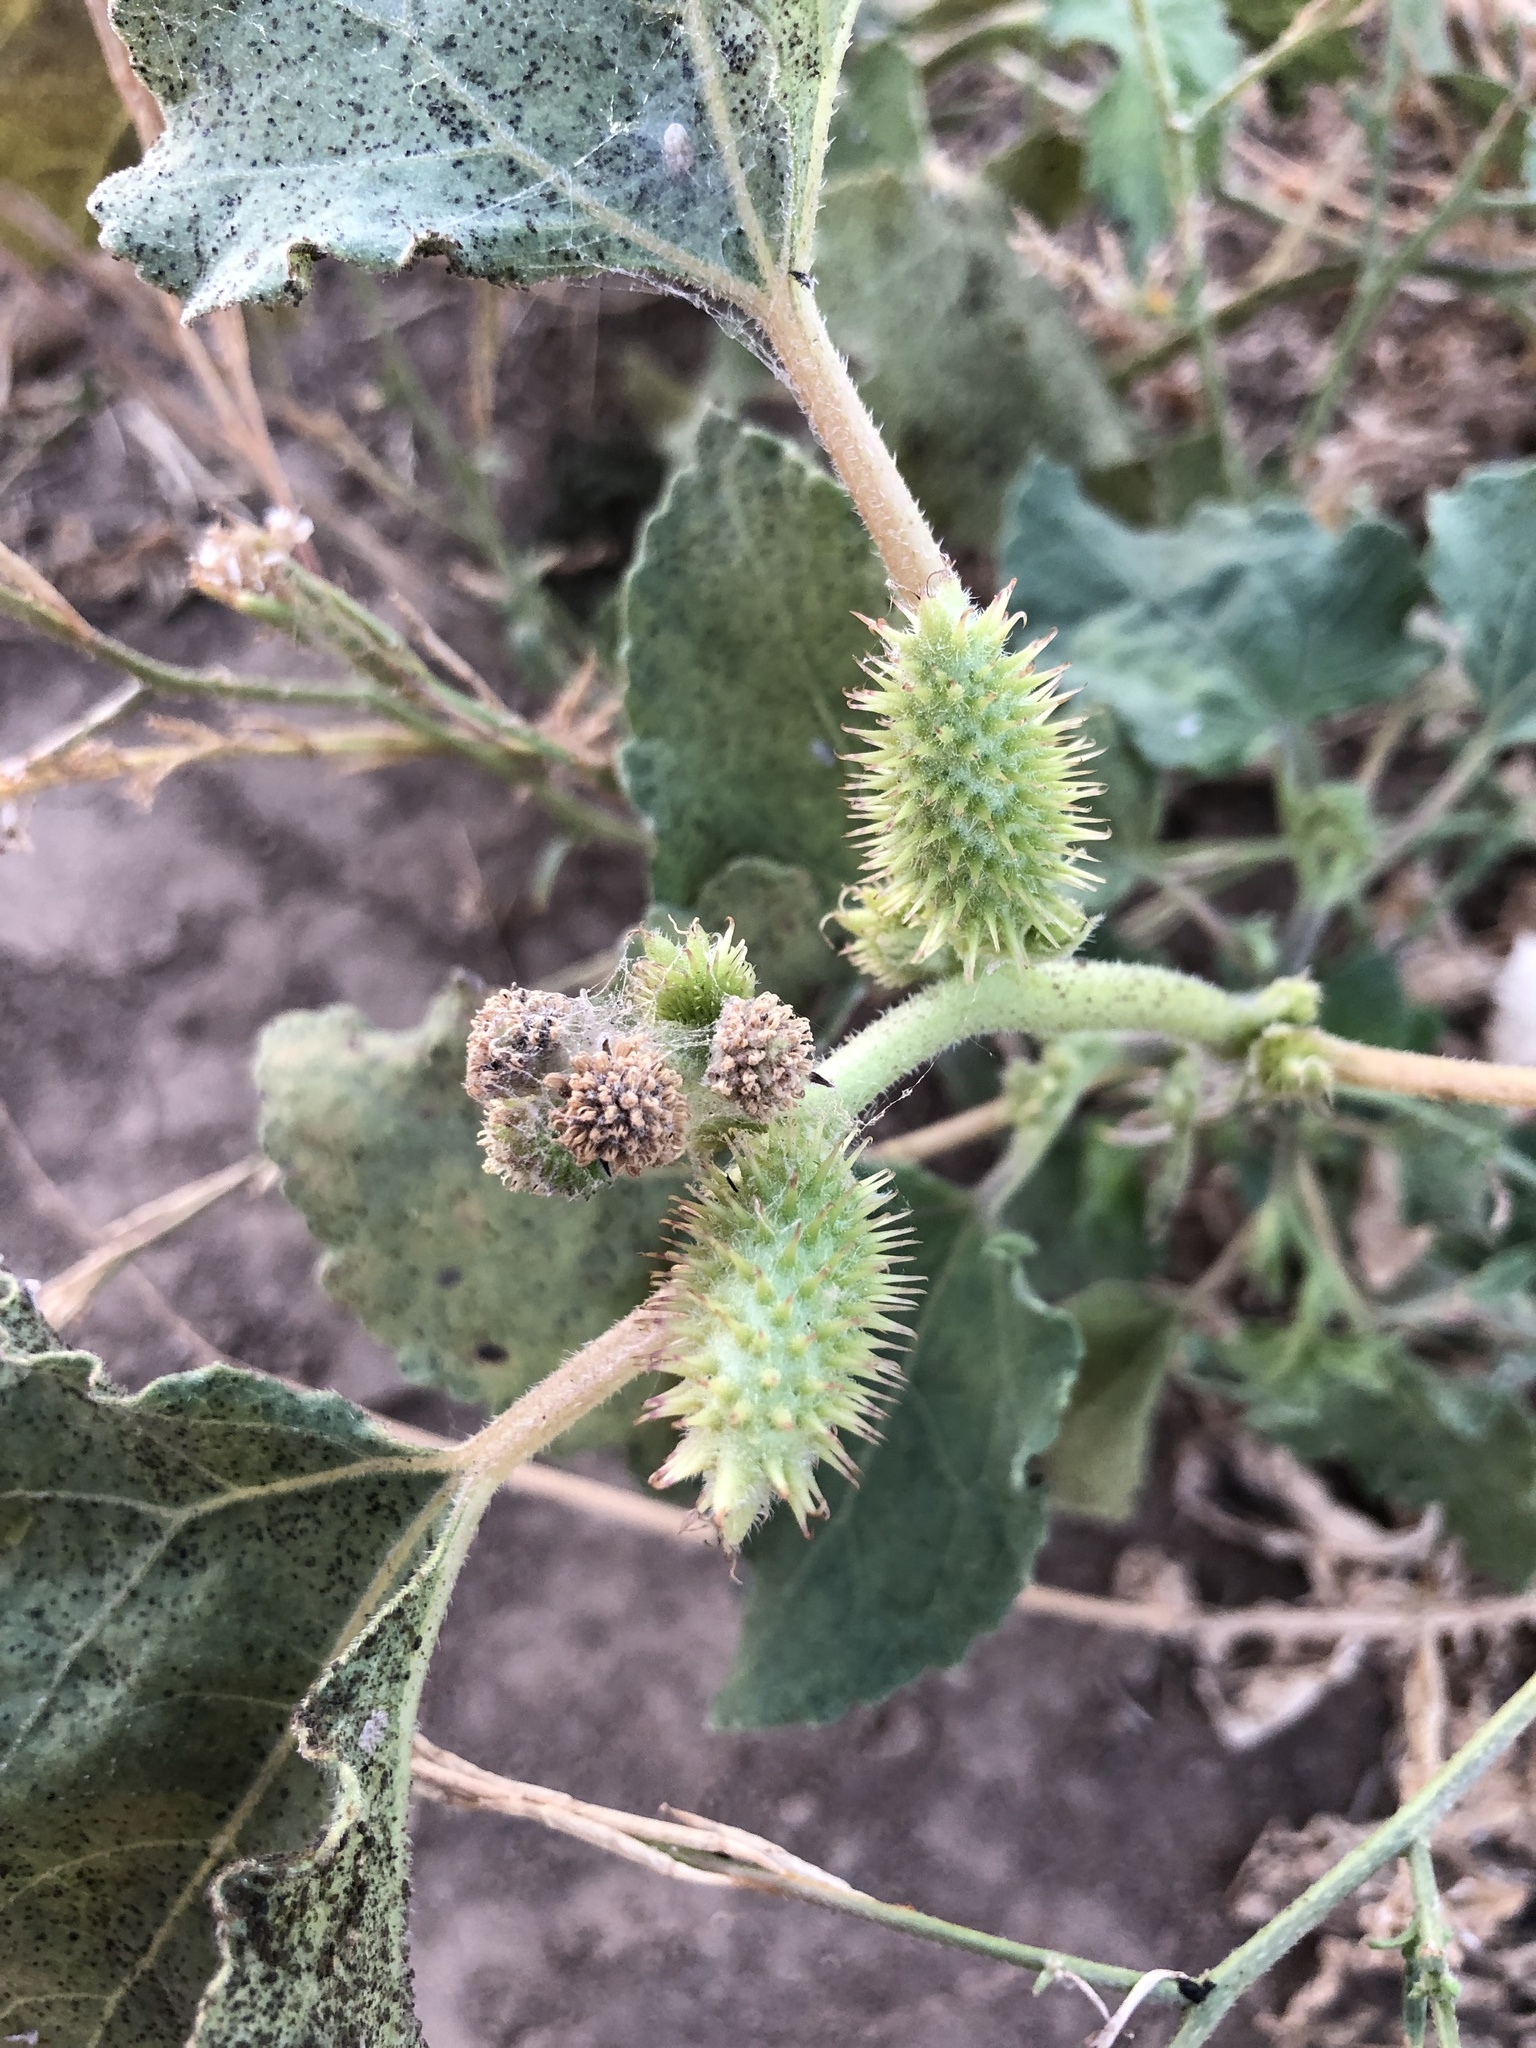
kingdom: Plantae
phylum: Tracheophyta
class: Magnoliopsida
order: Asterales
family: Asteraceae
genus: Xanthium
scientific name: Xanthium strumarium
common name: Rough cocklebur
